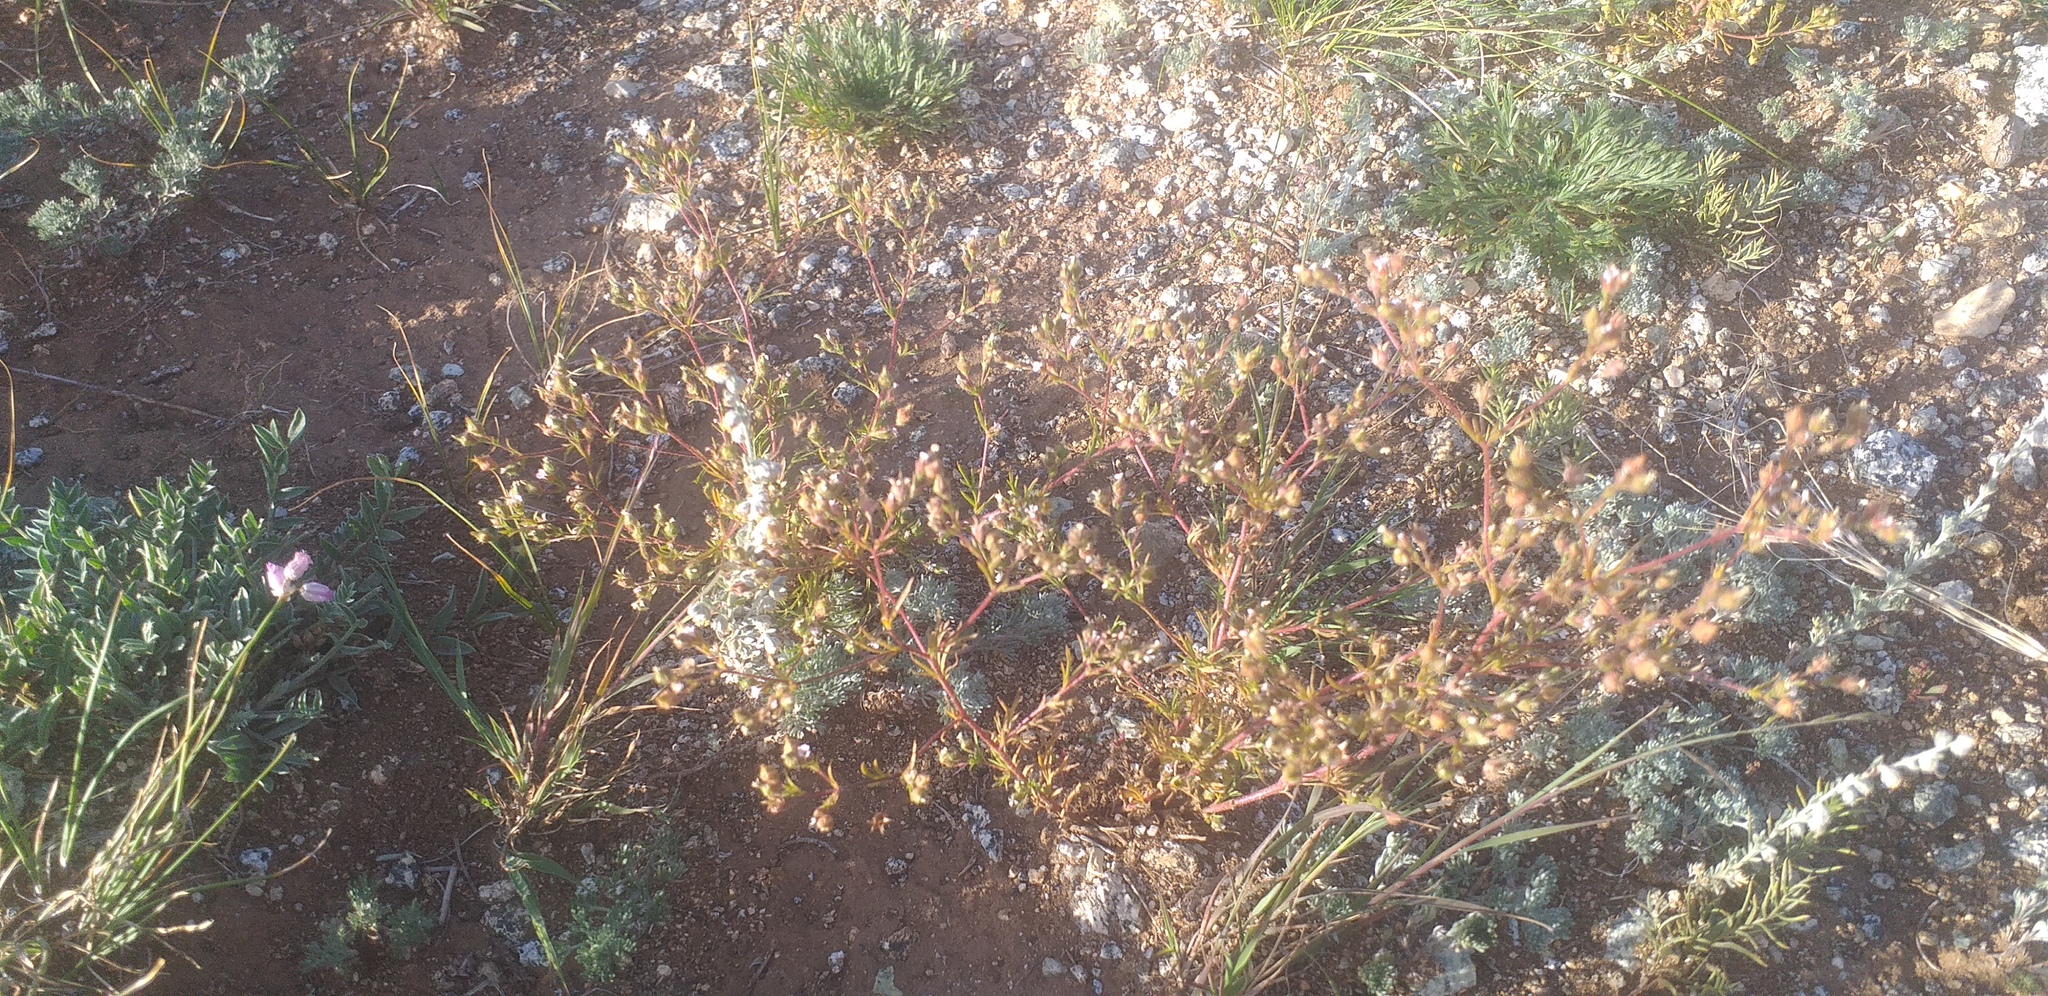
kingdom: Plantae
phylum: Tracheophyta
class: Magnoliopsida
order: Rosales
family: Rosaceae
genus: Chamaerhodos
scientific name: Chamaerhodos erecta
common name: American chamaerhodos
